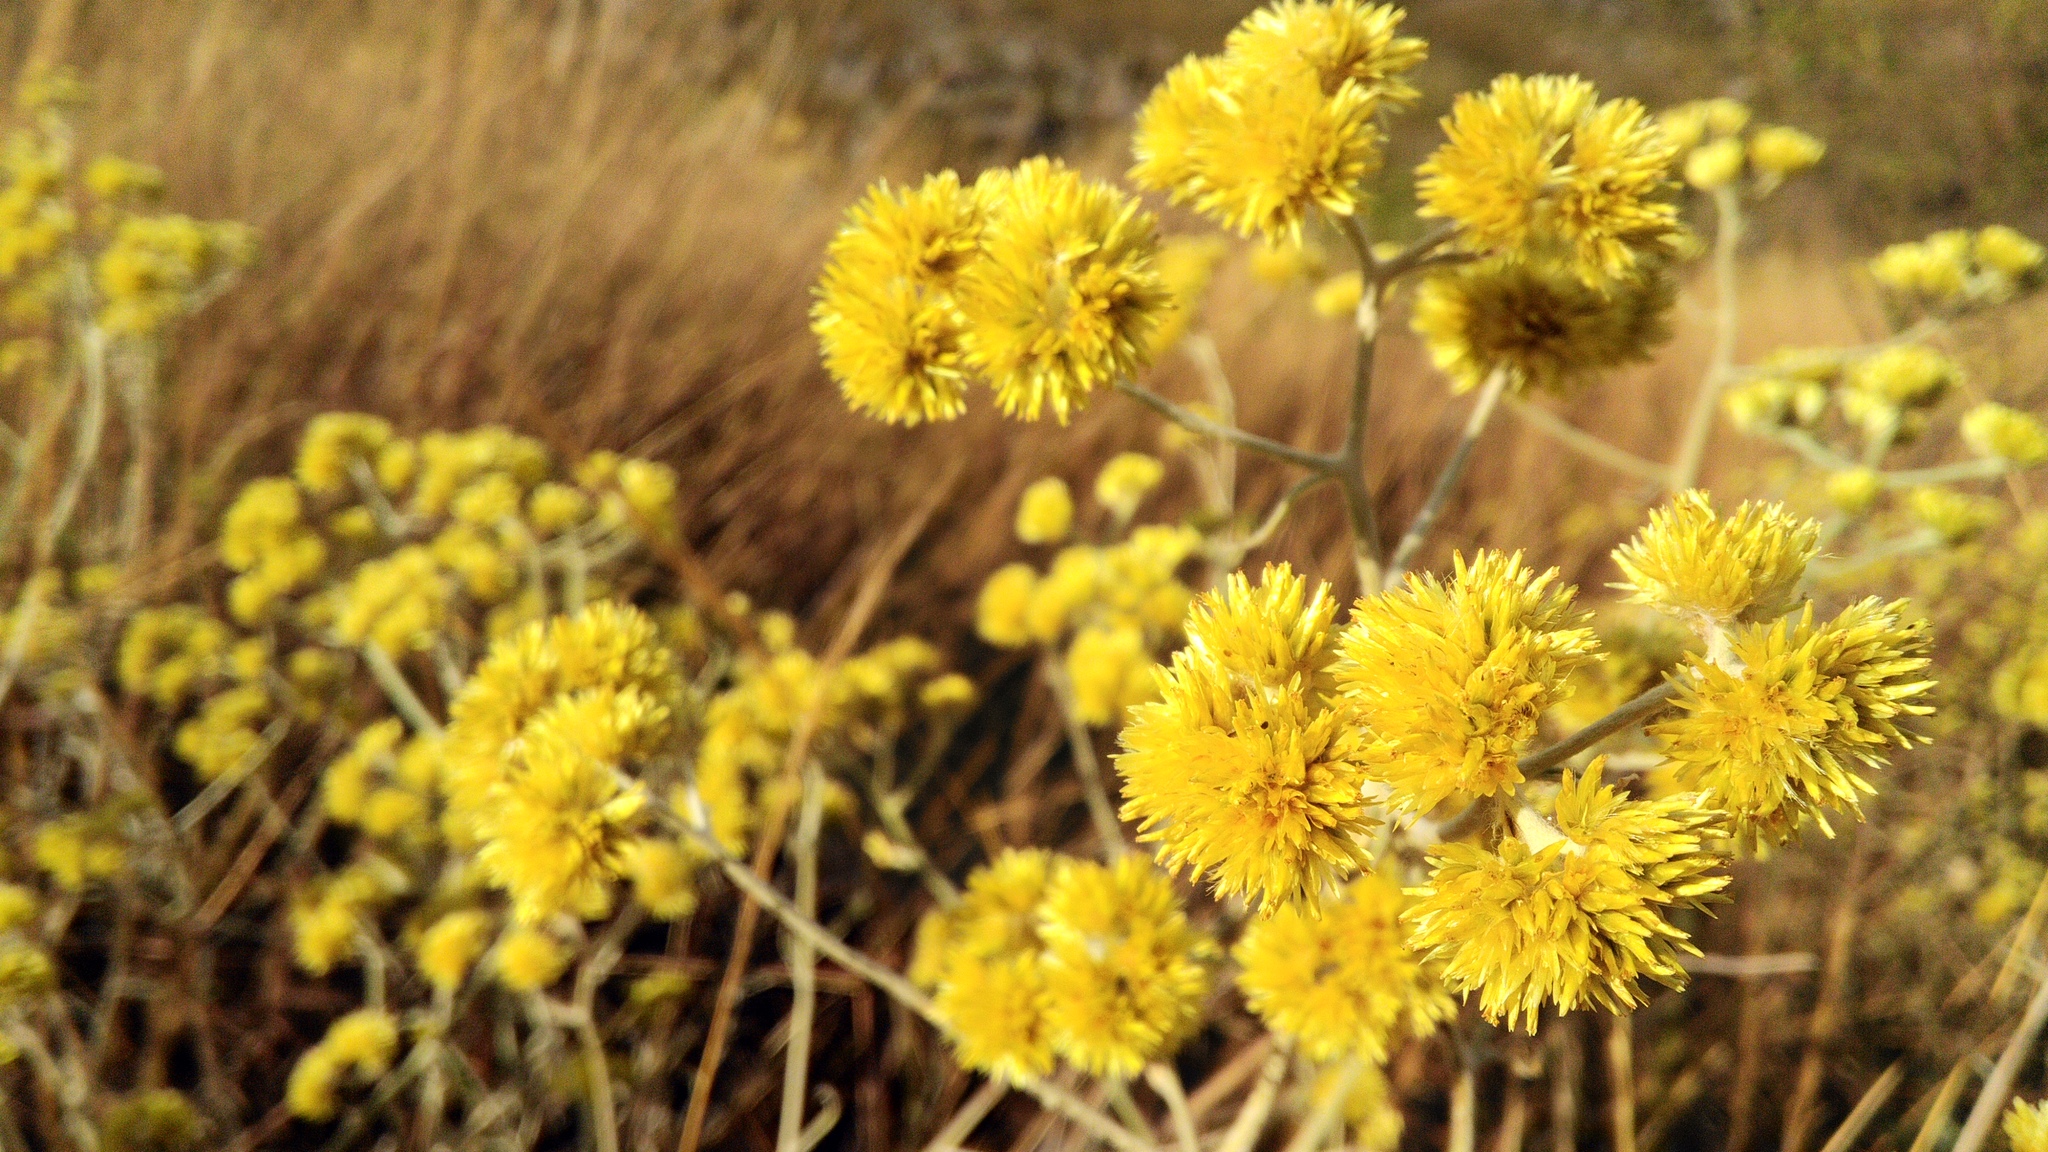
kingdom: Plantae
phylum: Tracheophyta
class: Magnoliopsida
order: Asterales
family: Asteraceae
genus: Achyrocline
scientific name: Achyrocline satureioides
